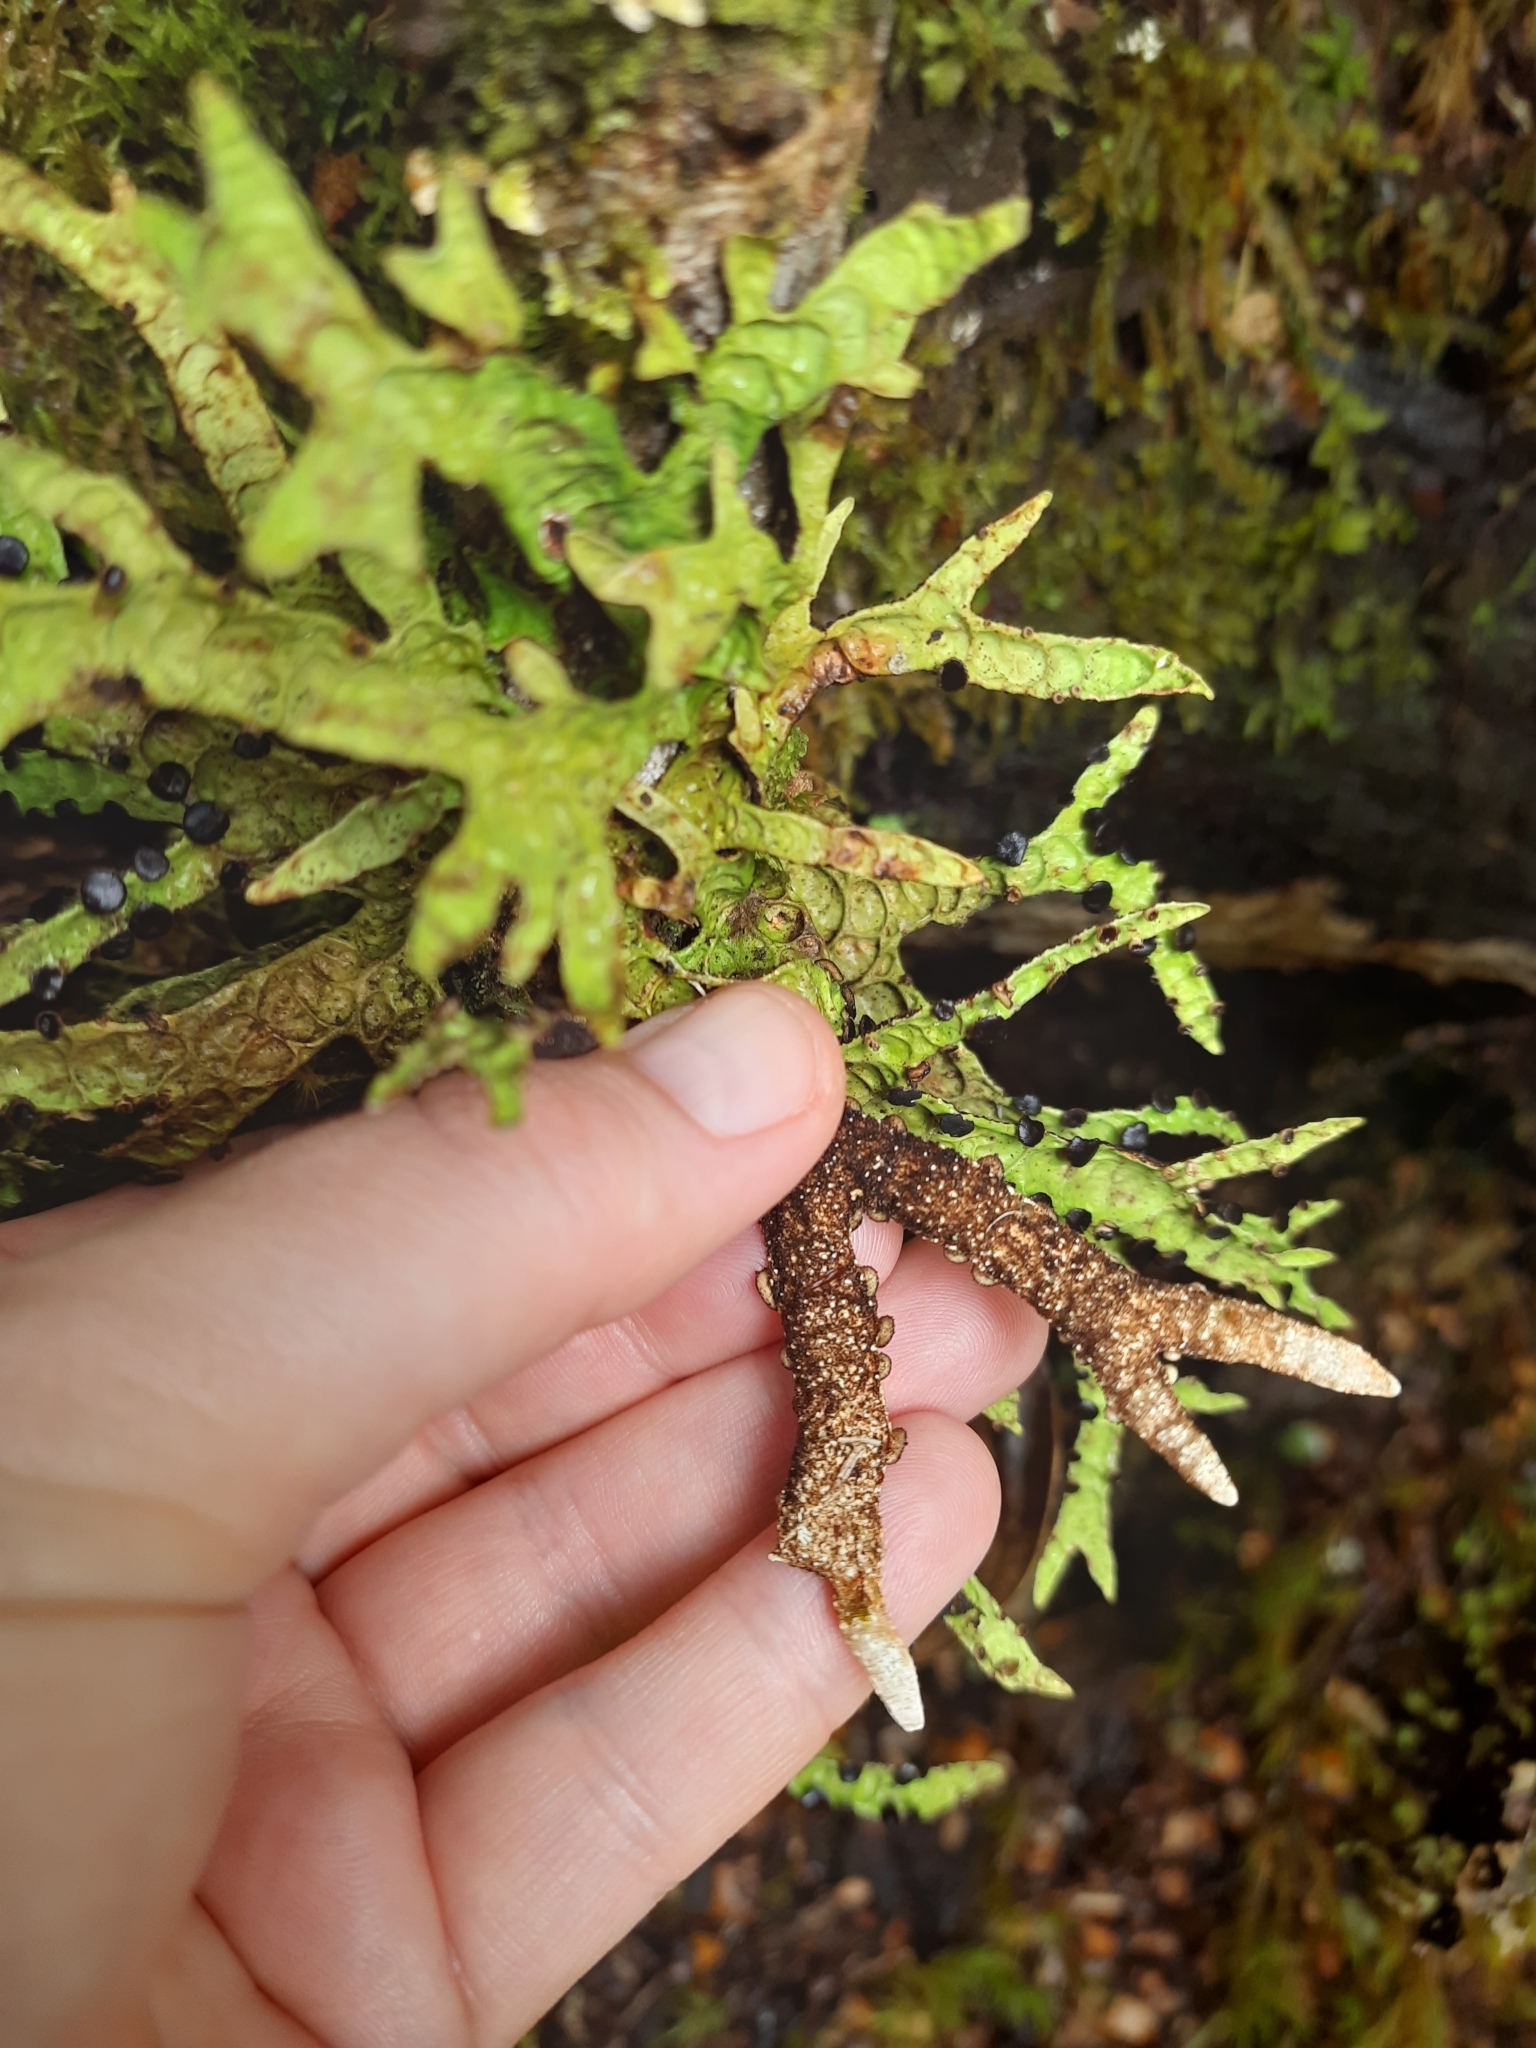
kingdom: Fungi
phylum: Ascomycota
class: Lecanoromycetes
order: Peltigerales
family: Lobariaceae
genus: Pseudocyphellaria
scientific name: Pseudocyphellaria billardierei
